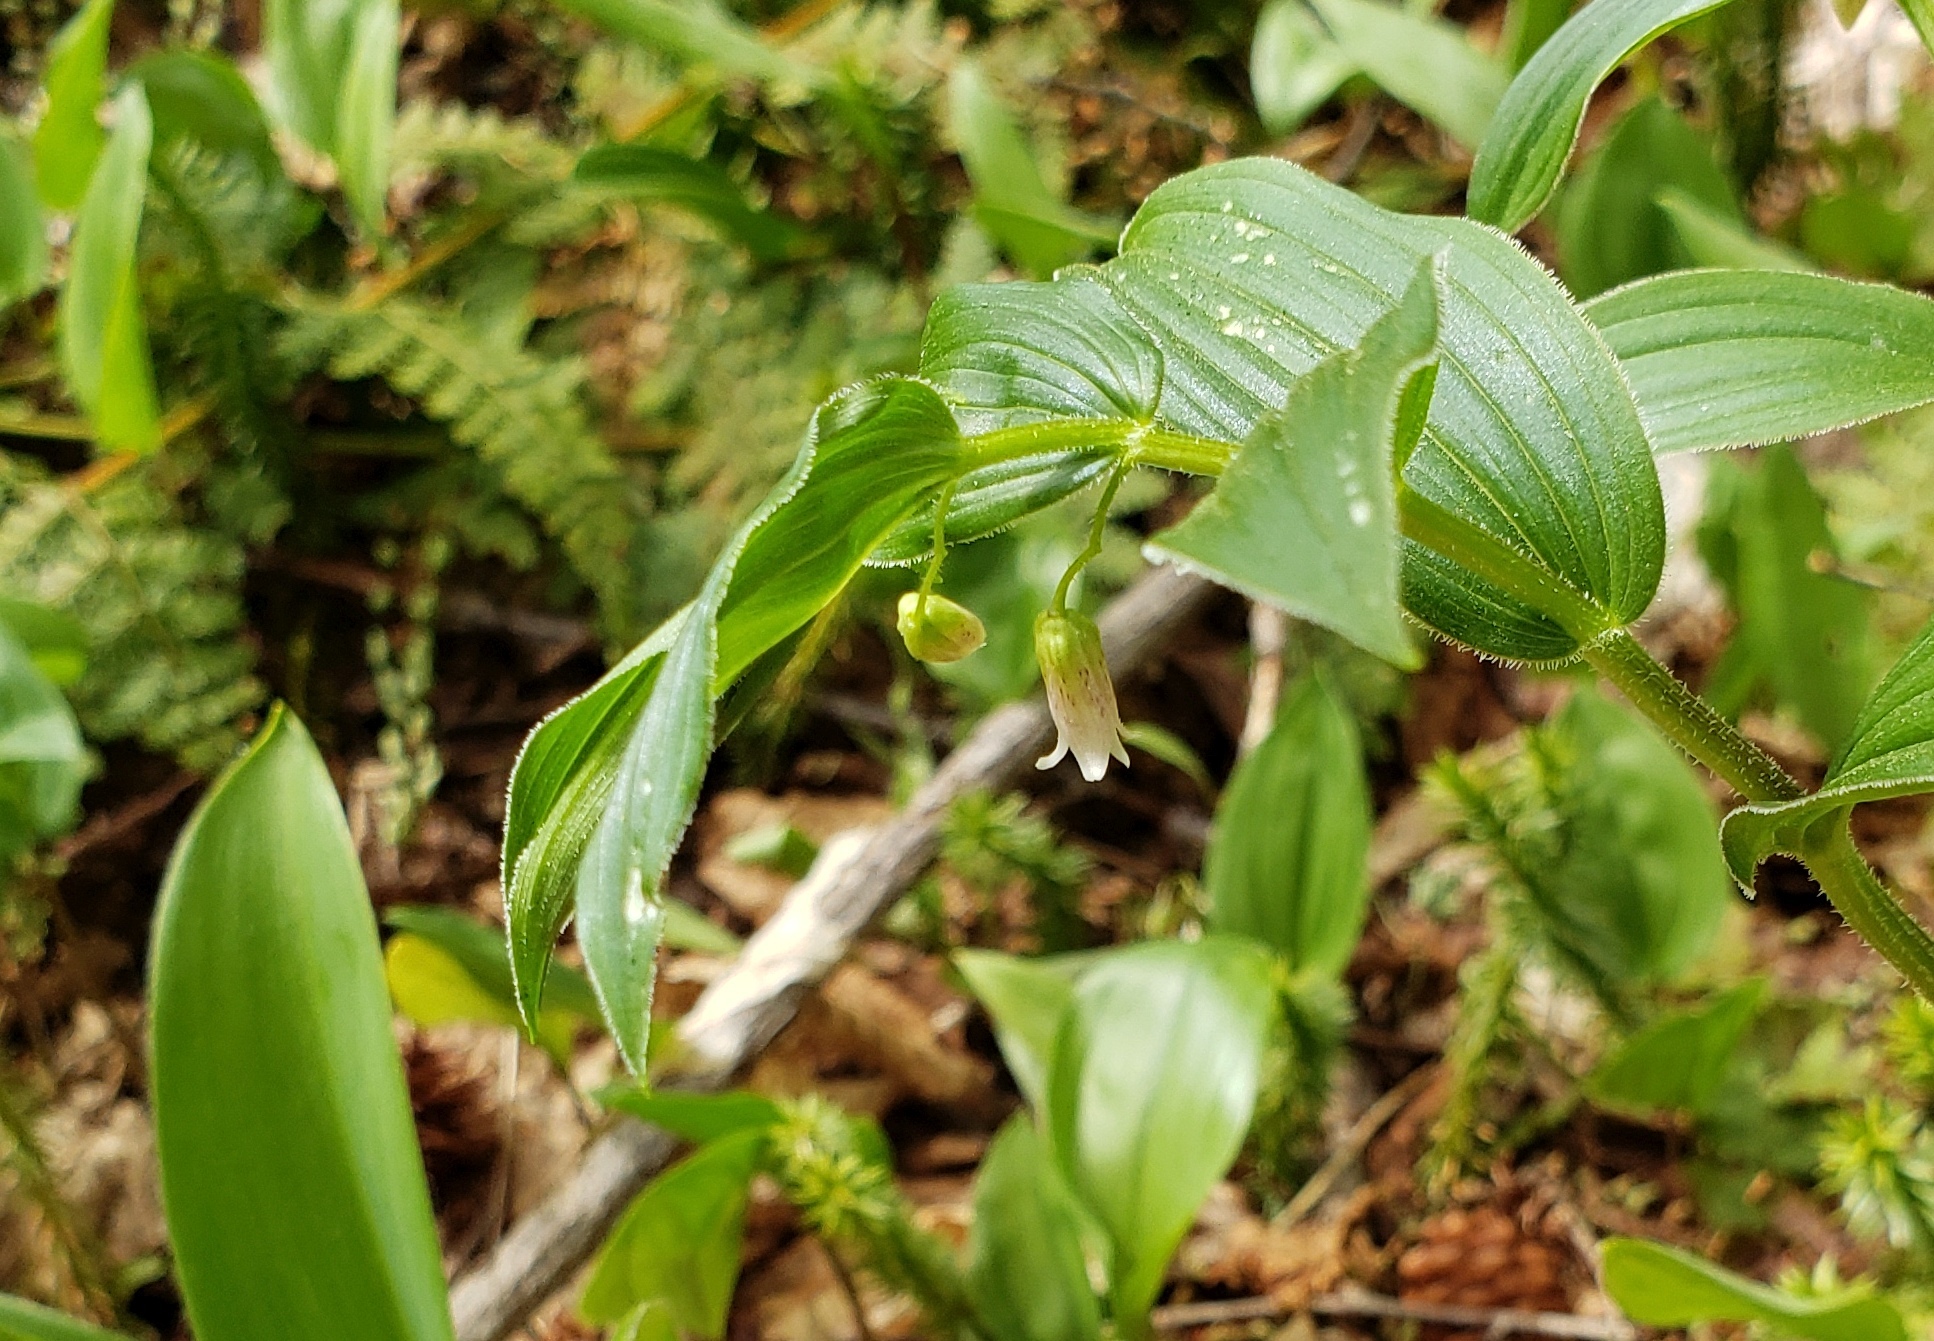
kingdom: Plantae
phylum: Tracheophyta
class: Liliopsida
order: Liliales
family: Liliaceae
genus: Streptopus
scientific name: Streptopus lanceolatus
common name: Rose mandarin
